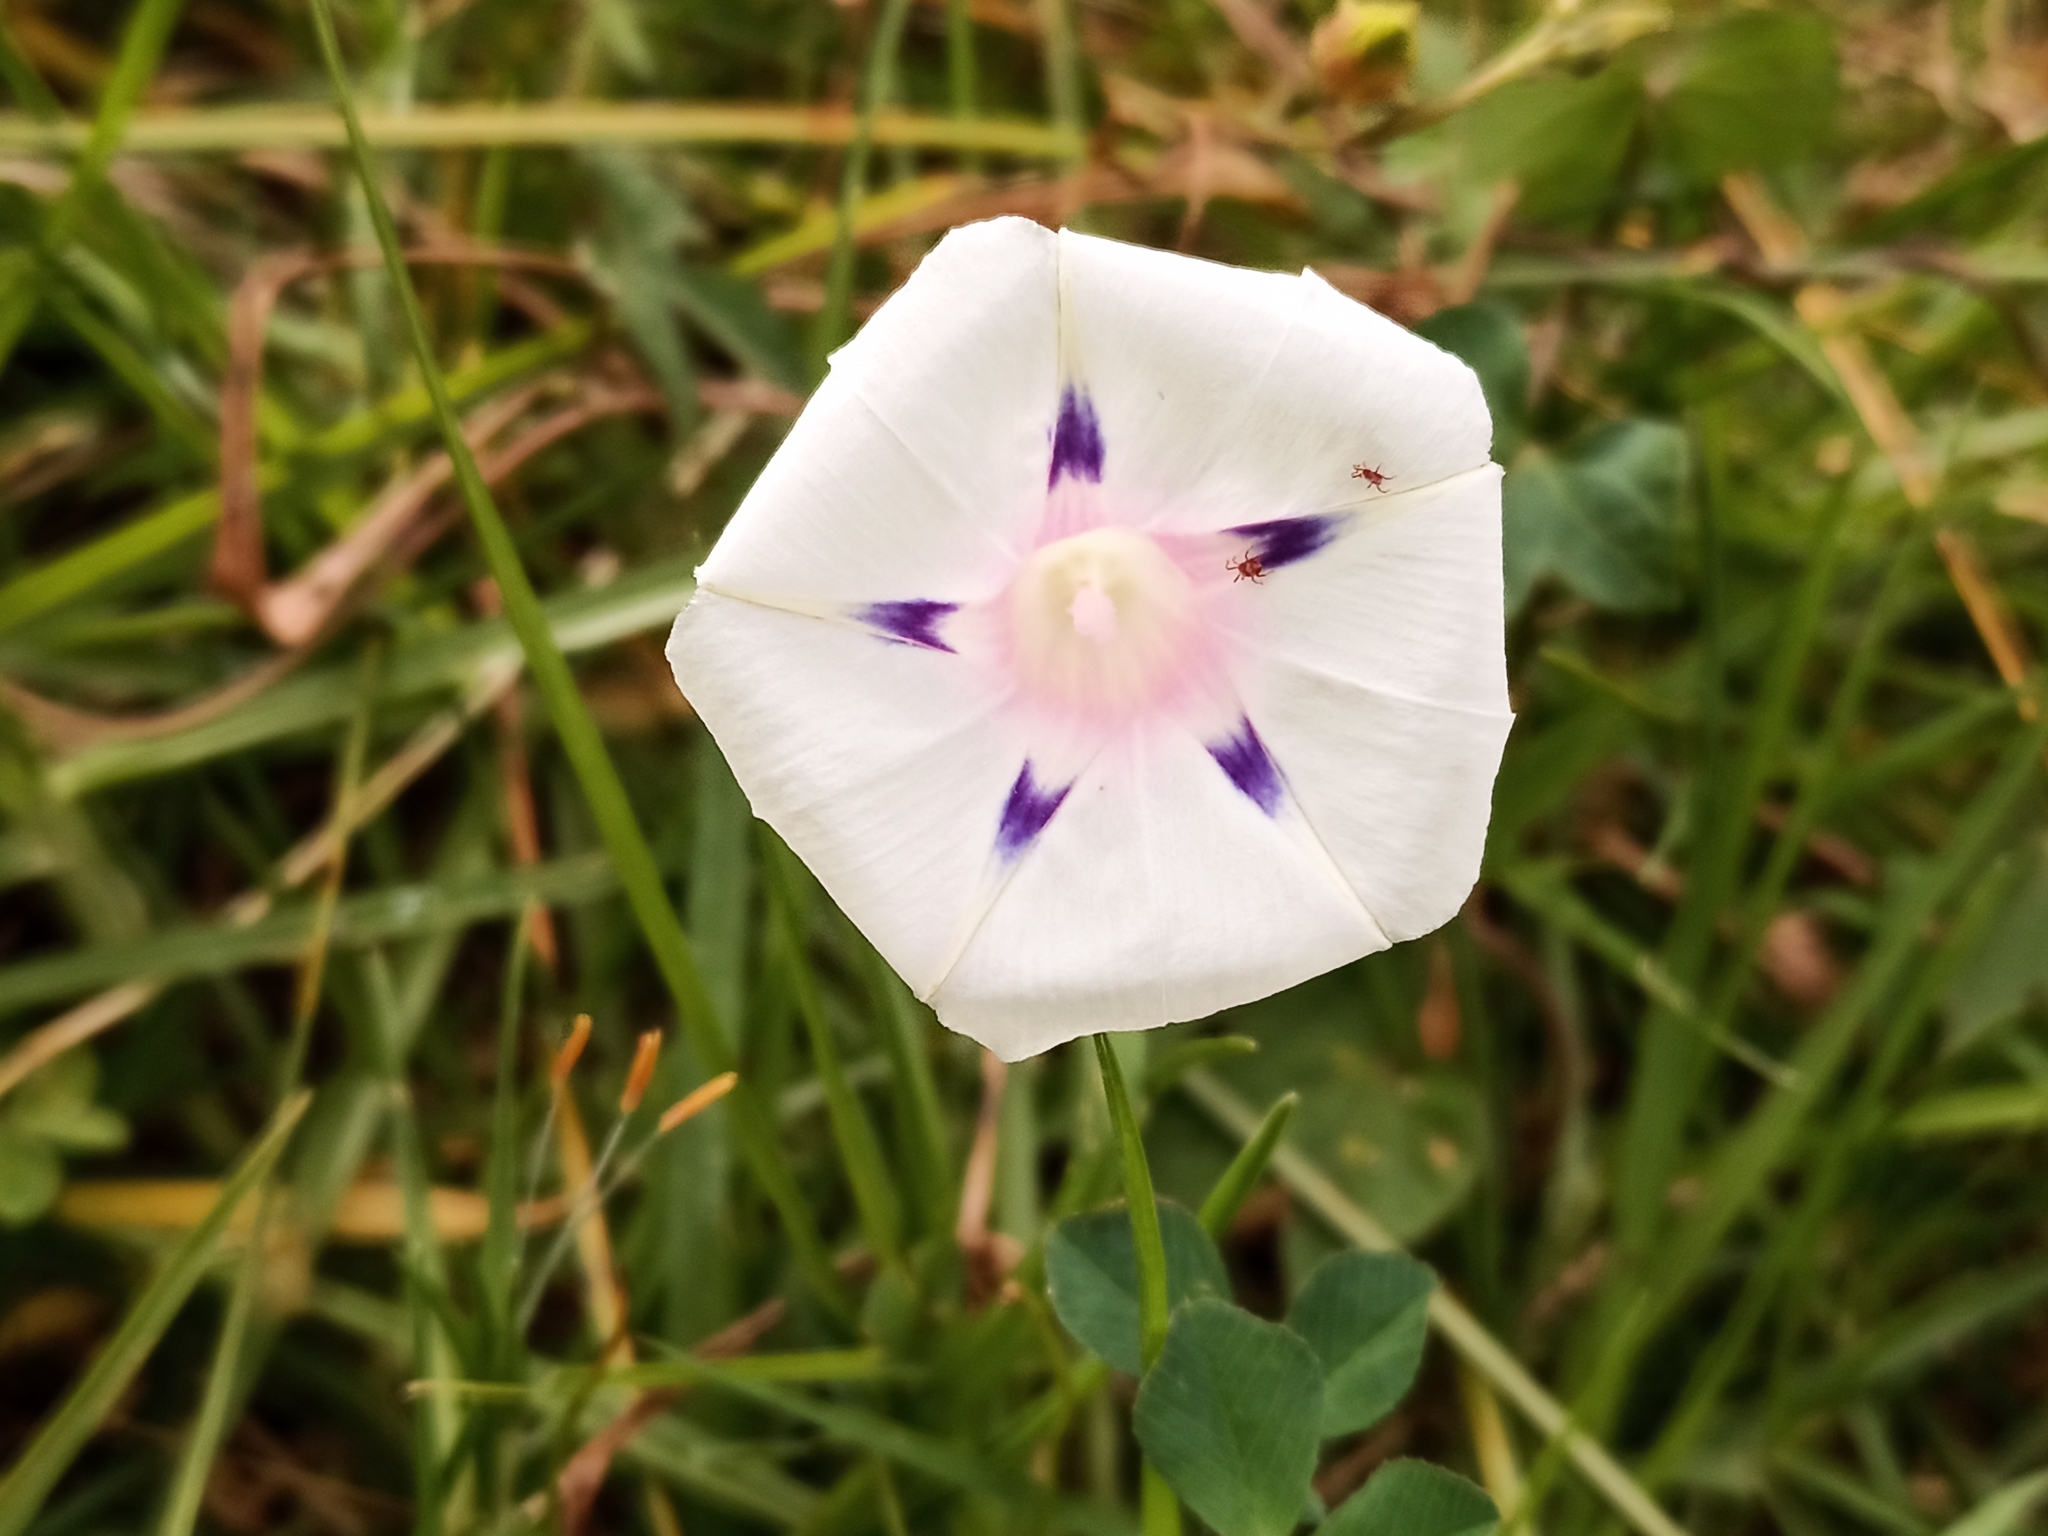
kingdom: Plantae
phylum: Tracheophyta
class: Magnoliopsida
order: Solanales
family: Convolvulaceae
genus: Ipomoea
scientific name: Ipomoea purpurea
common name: Common morning-glory
